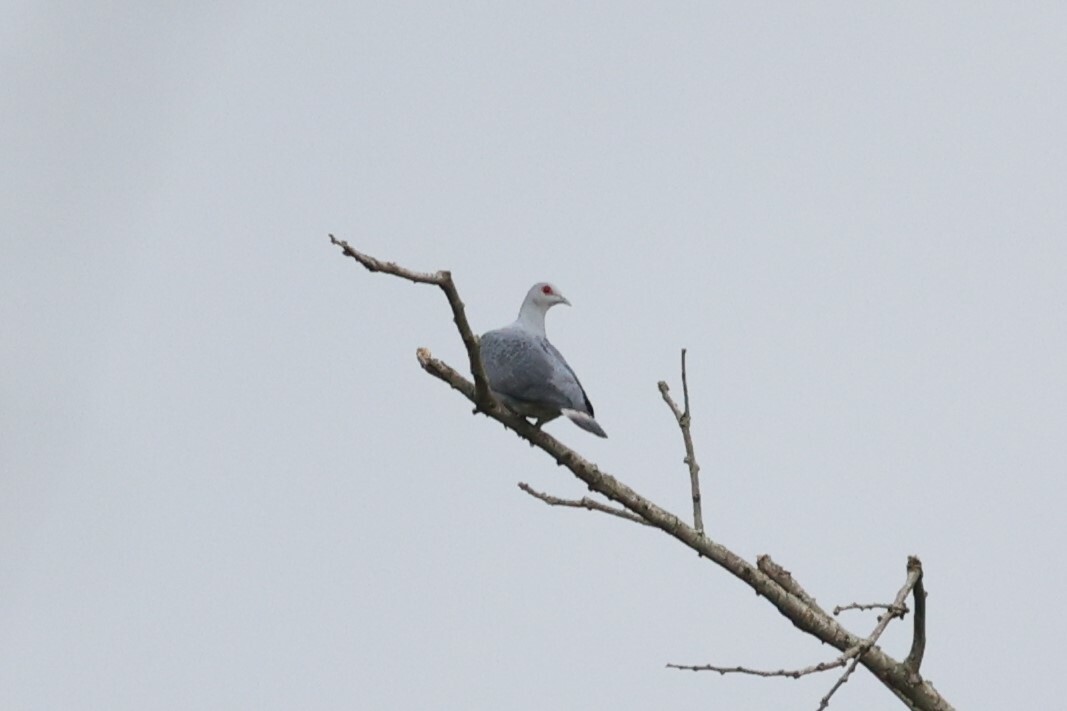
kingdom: Animalia
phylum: Chordata
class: Aves
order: Columbiformes
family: Columbidae
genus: Columba
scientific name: Columba unicincta
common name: Afep pigeon
